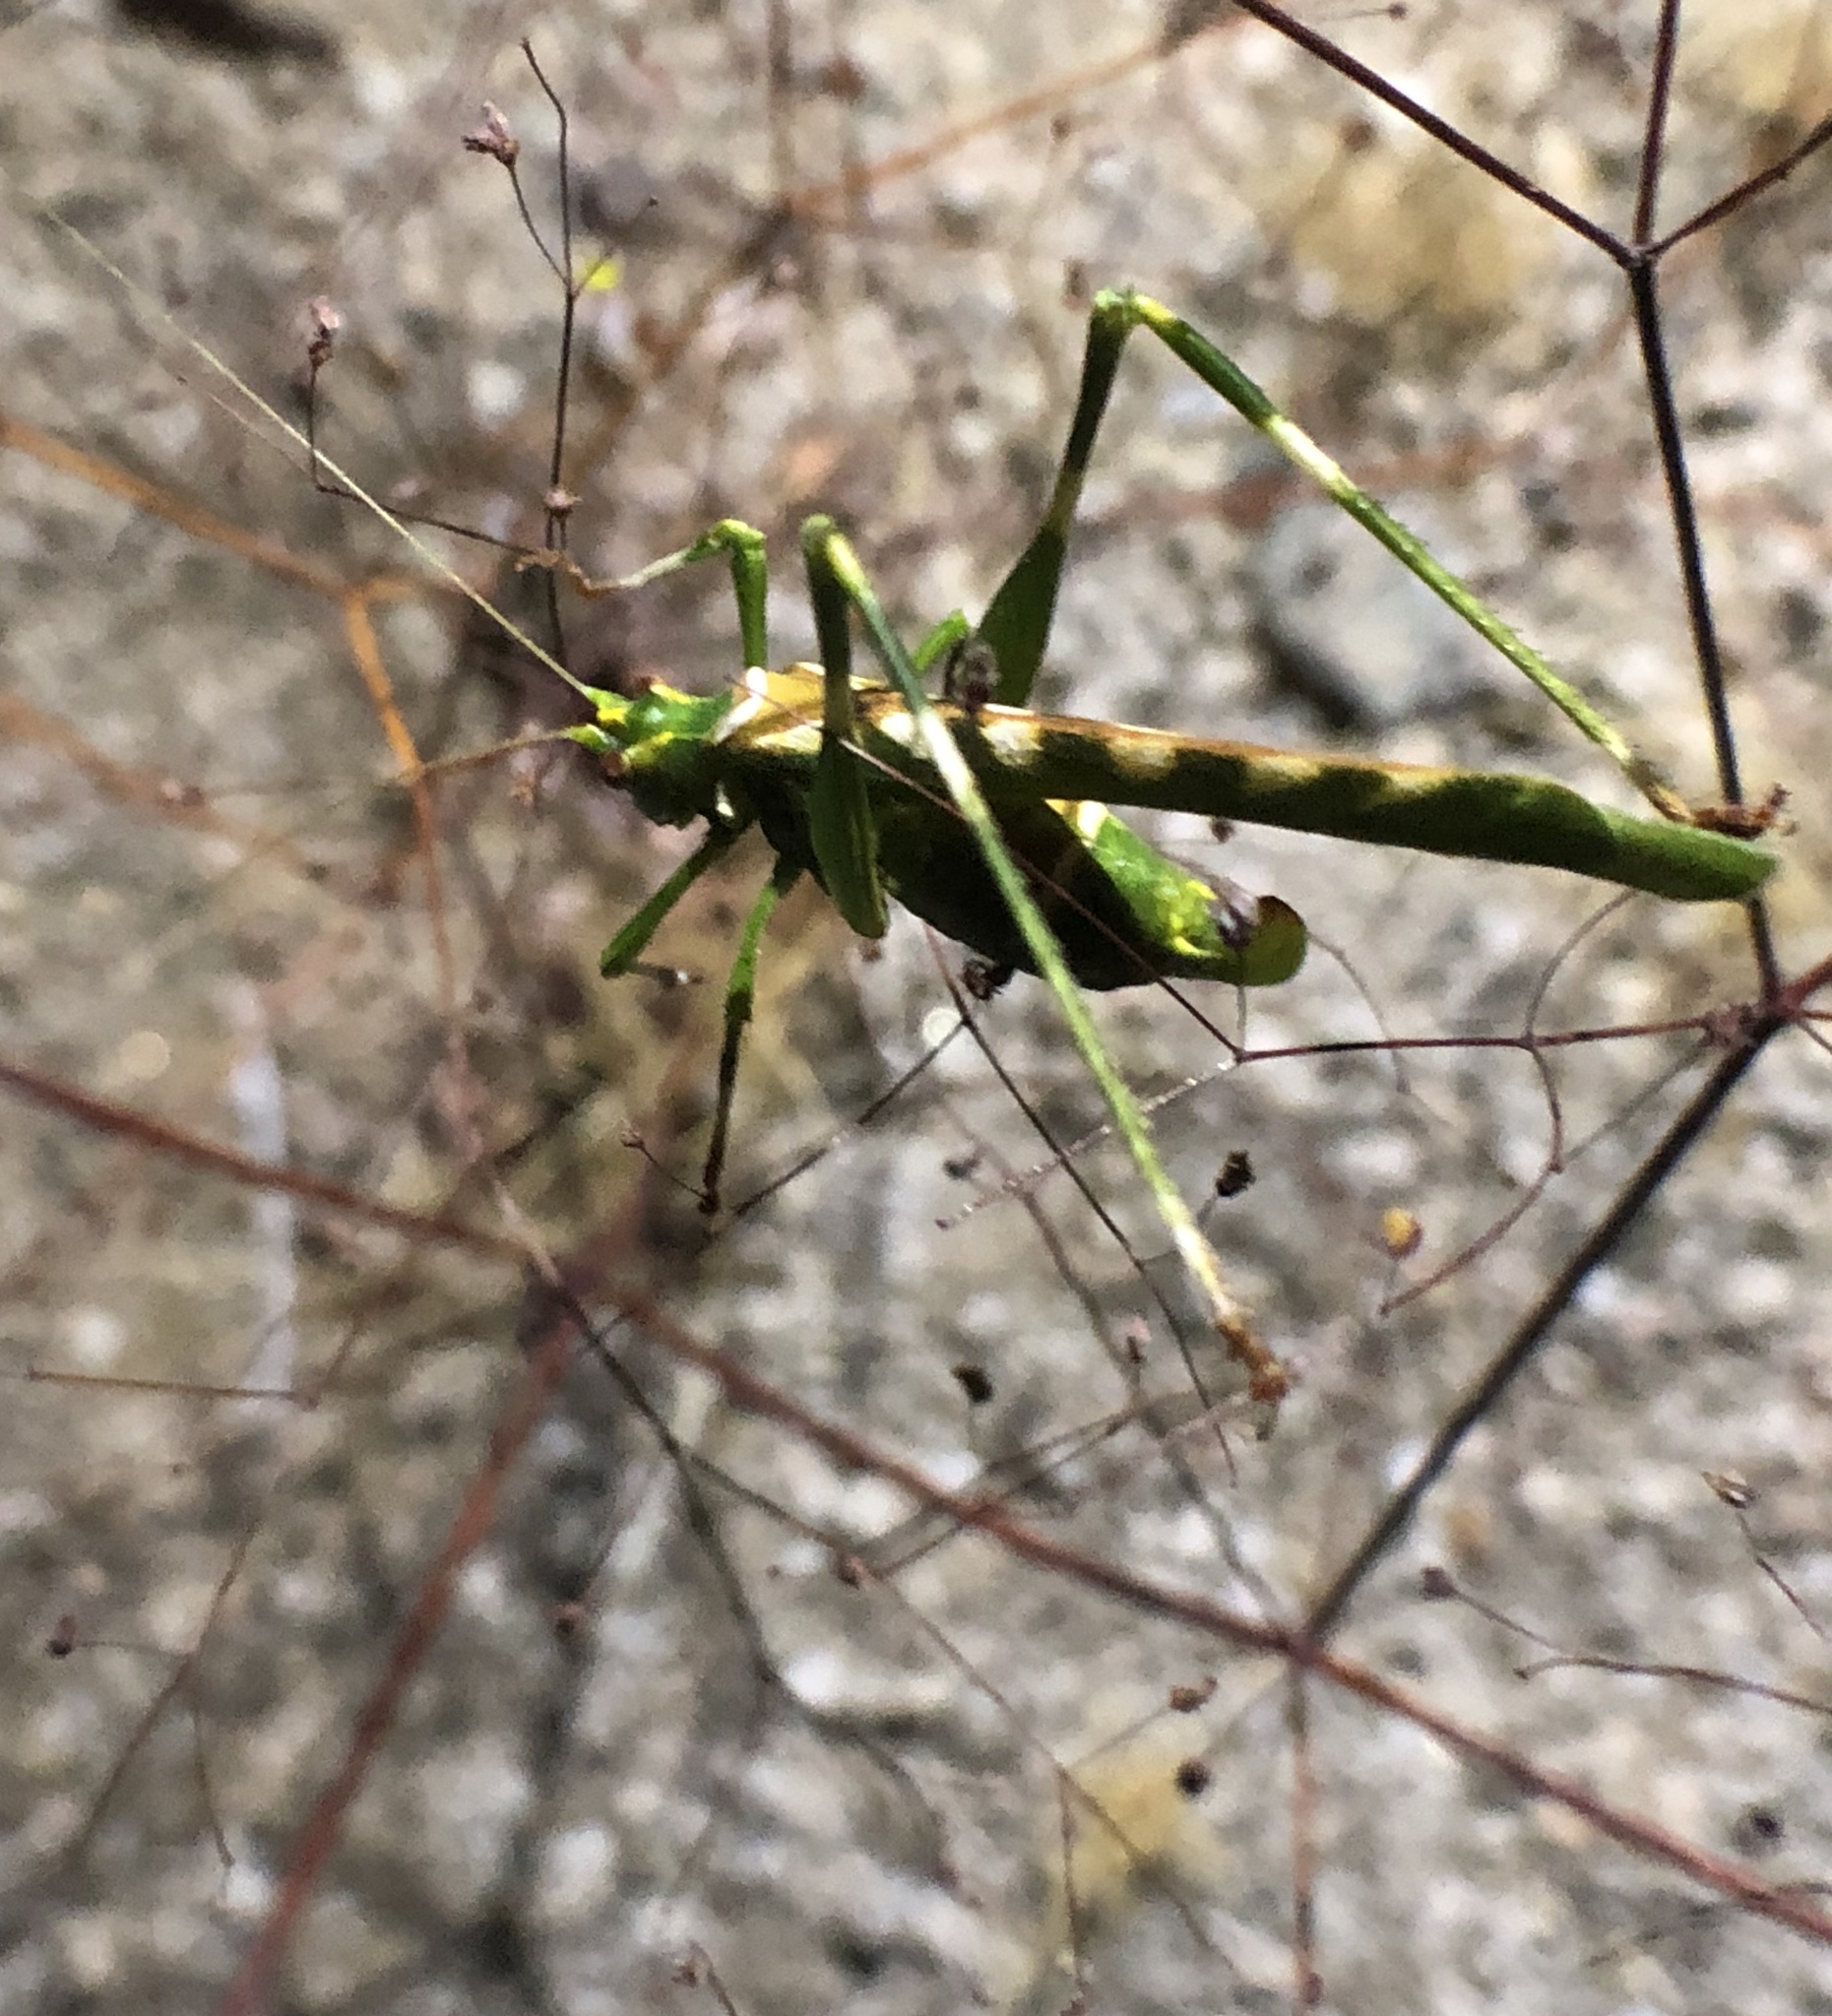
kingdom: Animalia
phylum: Arthropoda
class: Insecta
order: Orthoptera
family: Tettigoniidae
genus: Insara
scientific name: Insara covilleae
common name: Creosote bush katydid
